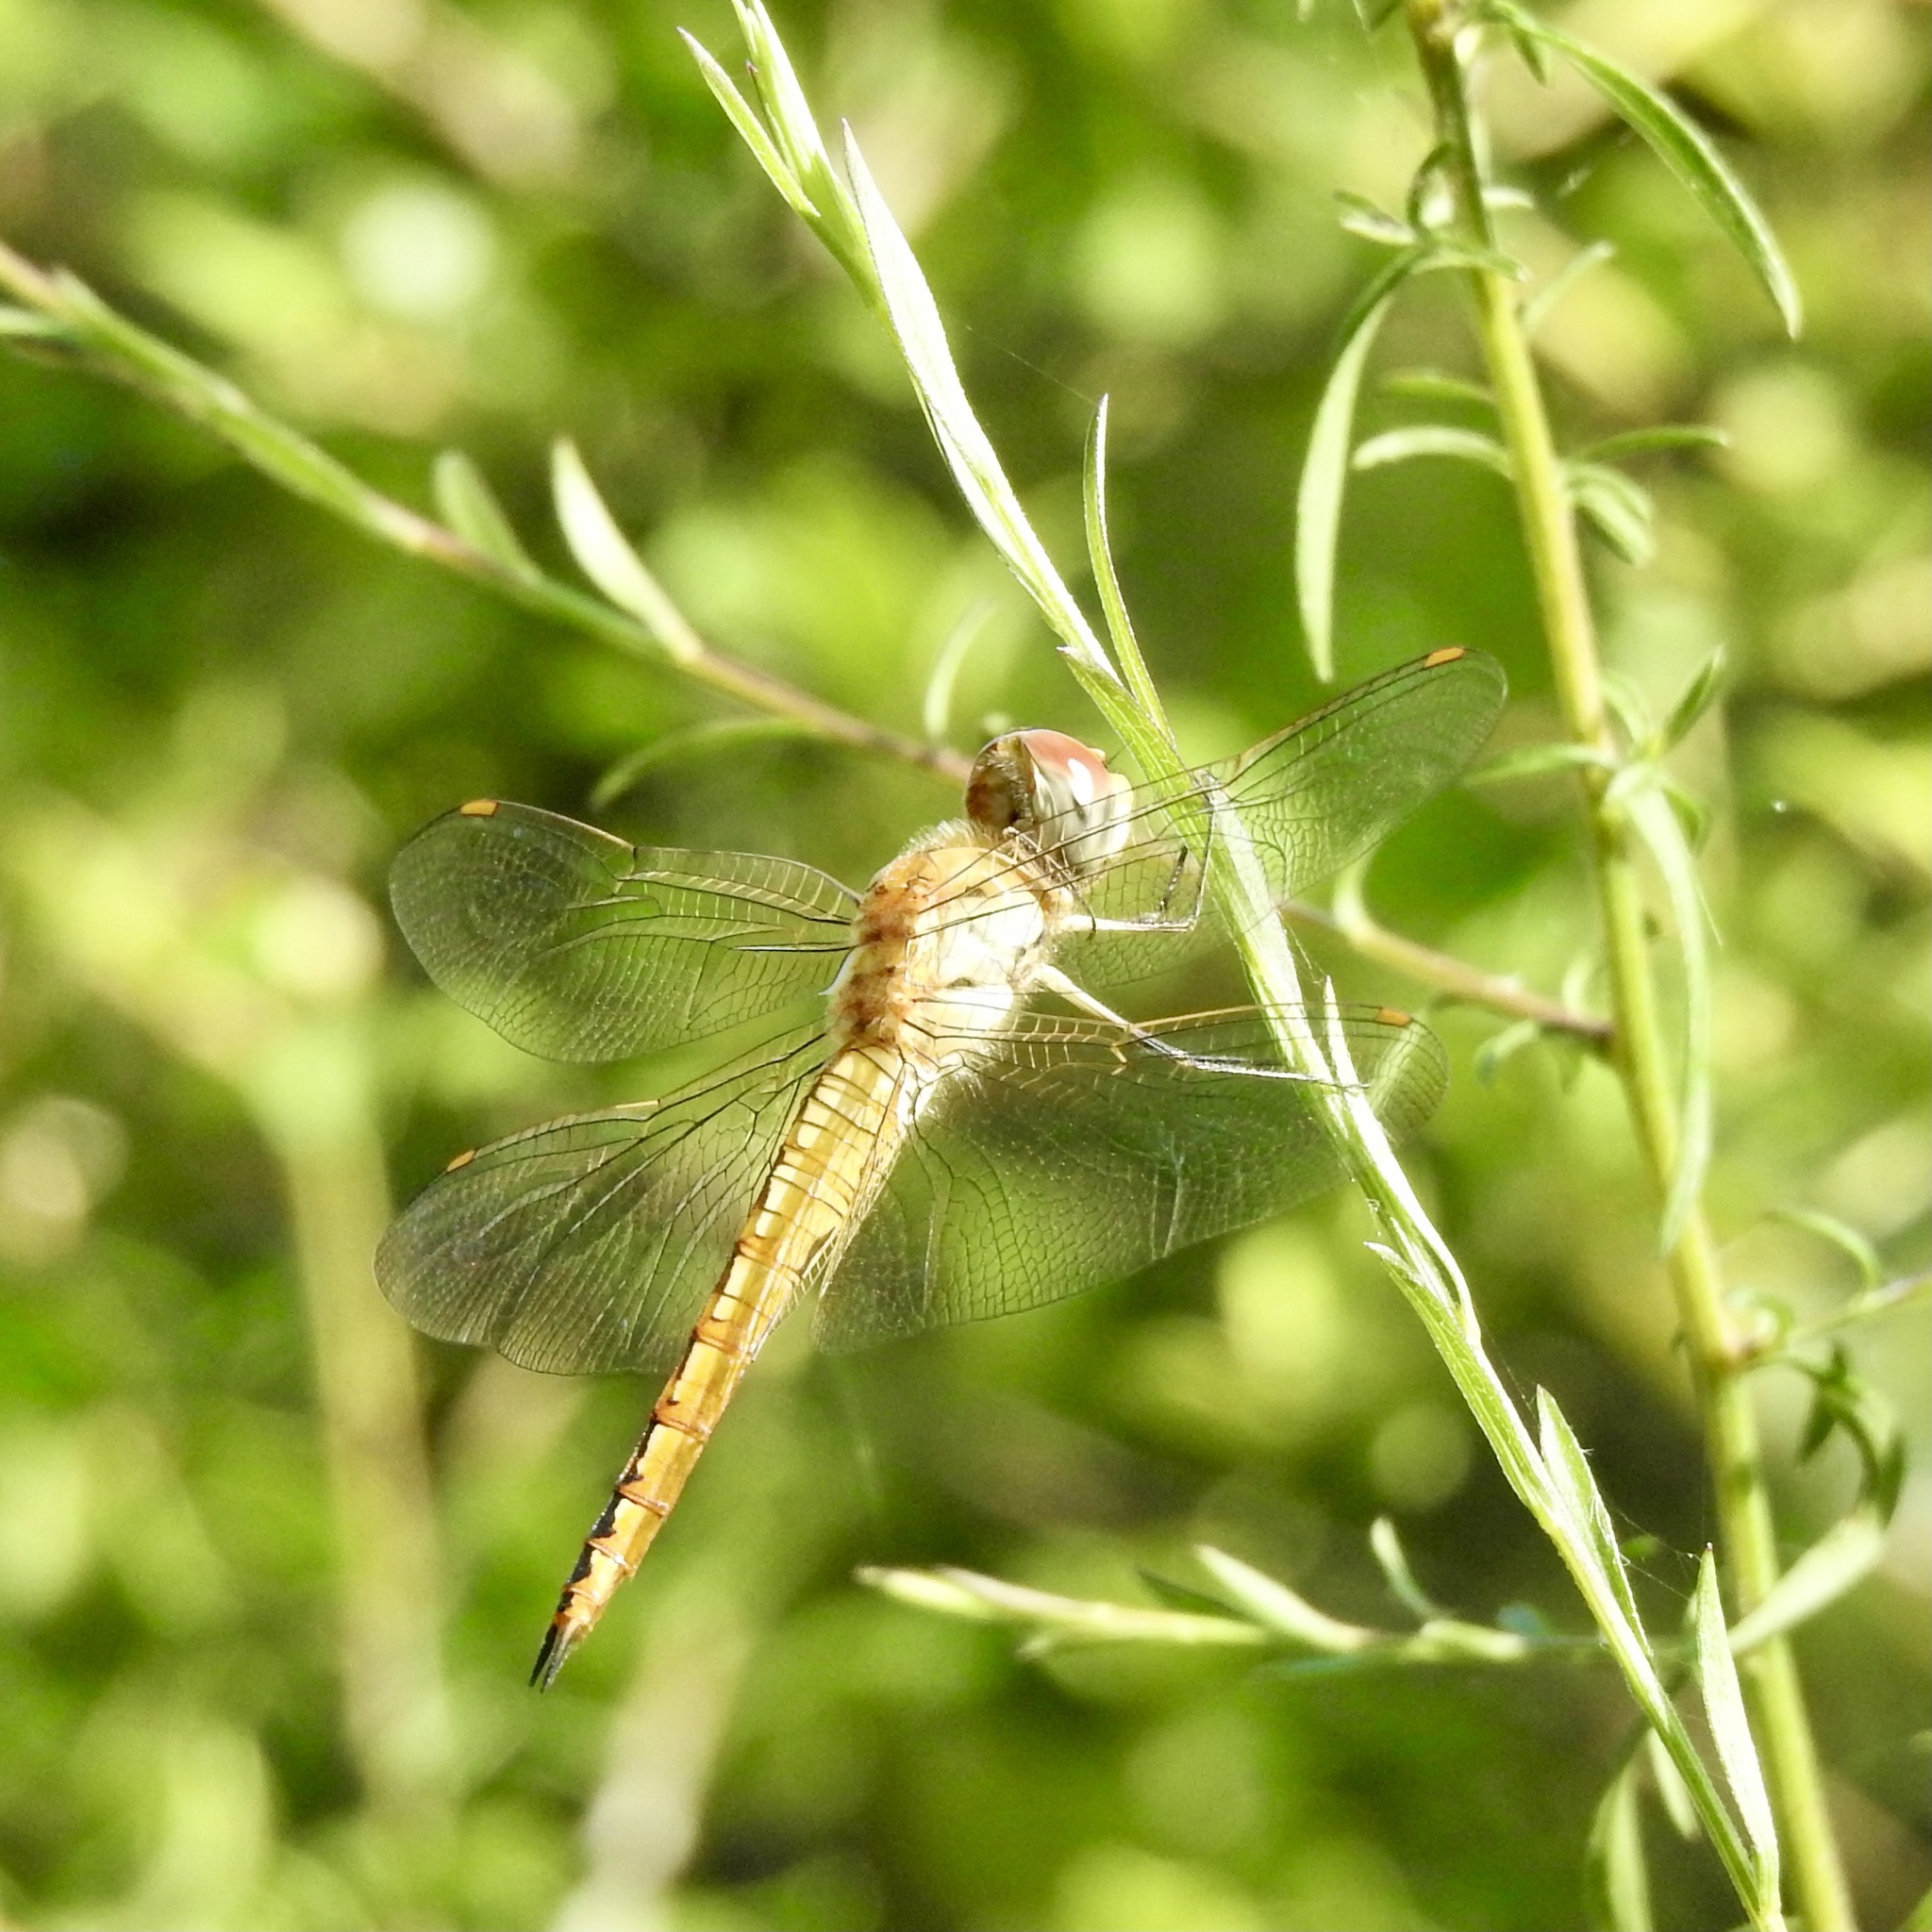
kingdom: Animalia
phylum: Arthropoda
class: Insecta
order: Odonata
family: Libellulidae
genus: Pantala
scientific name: Pantala flavescens
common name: Wandering glider
